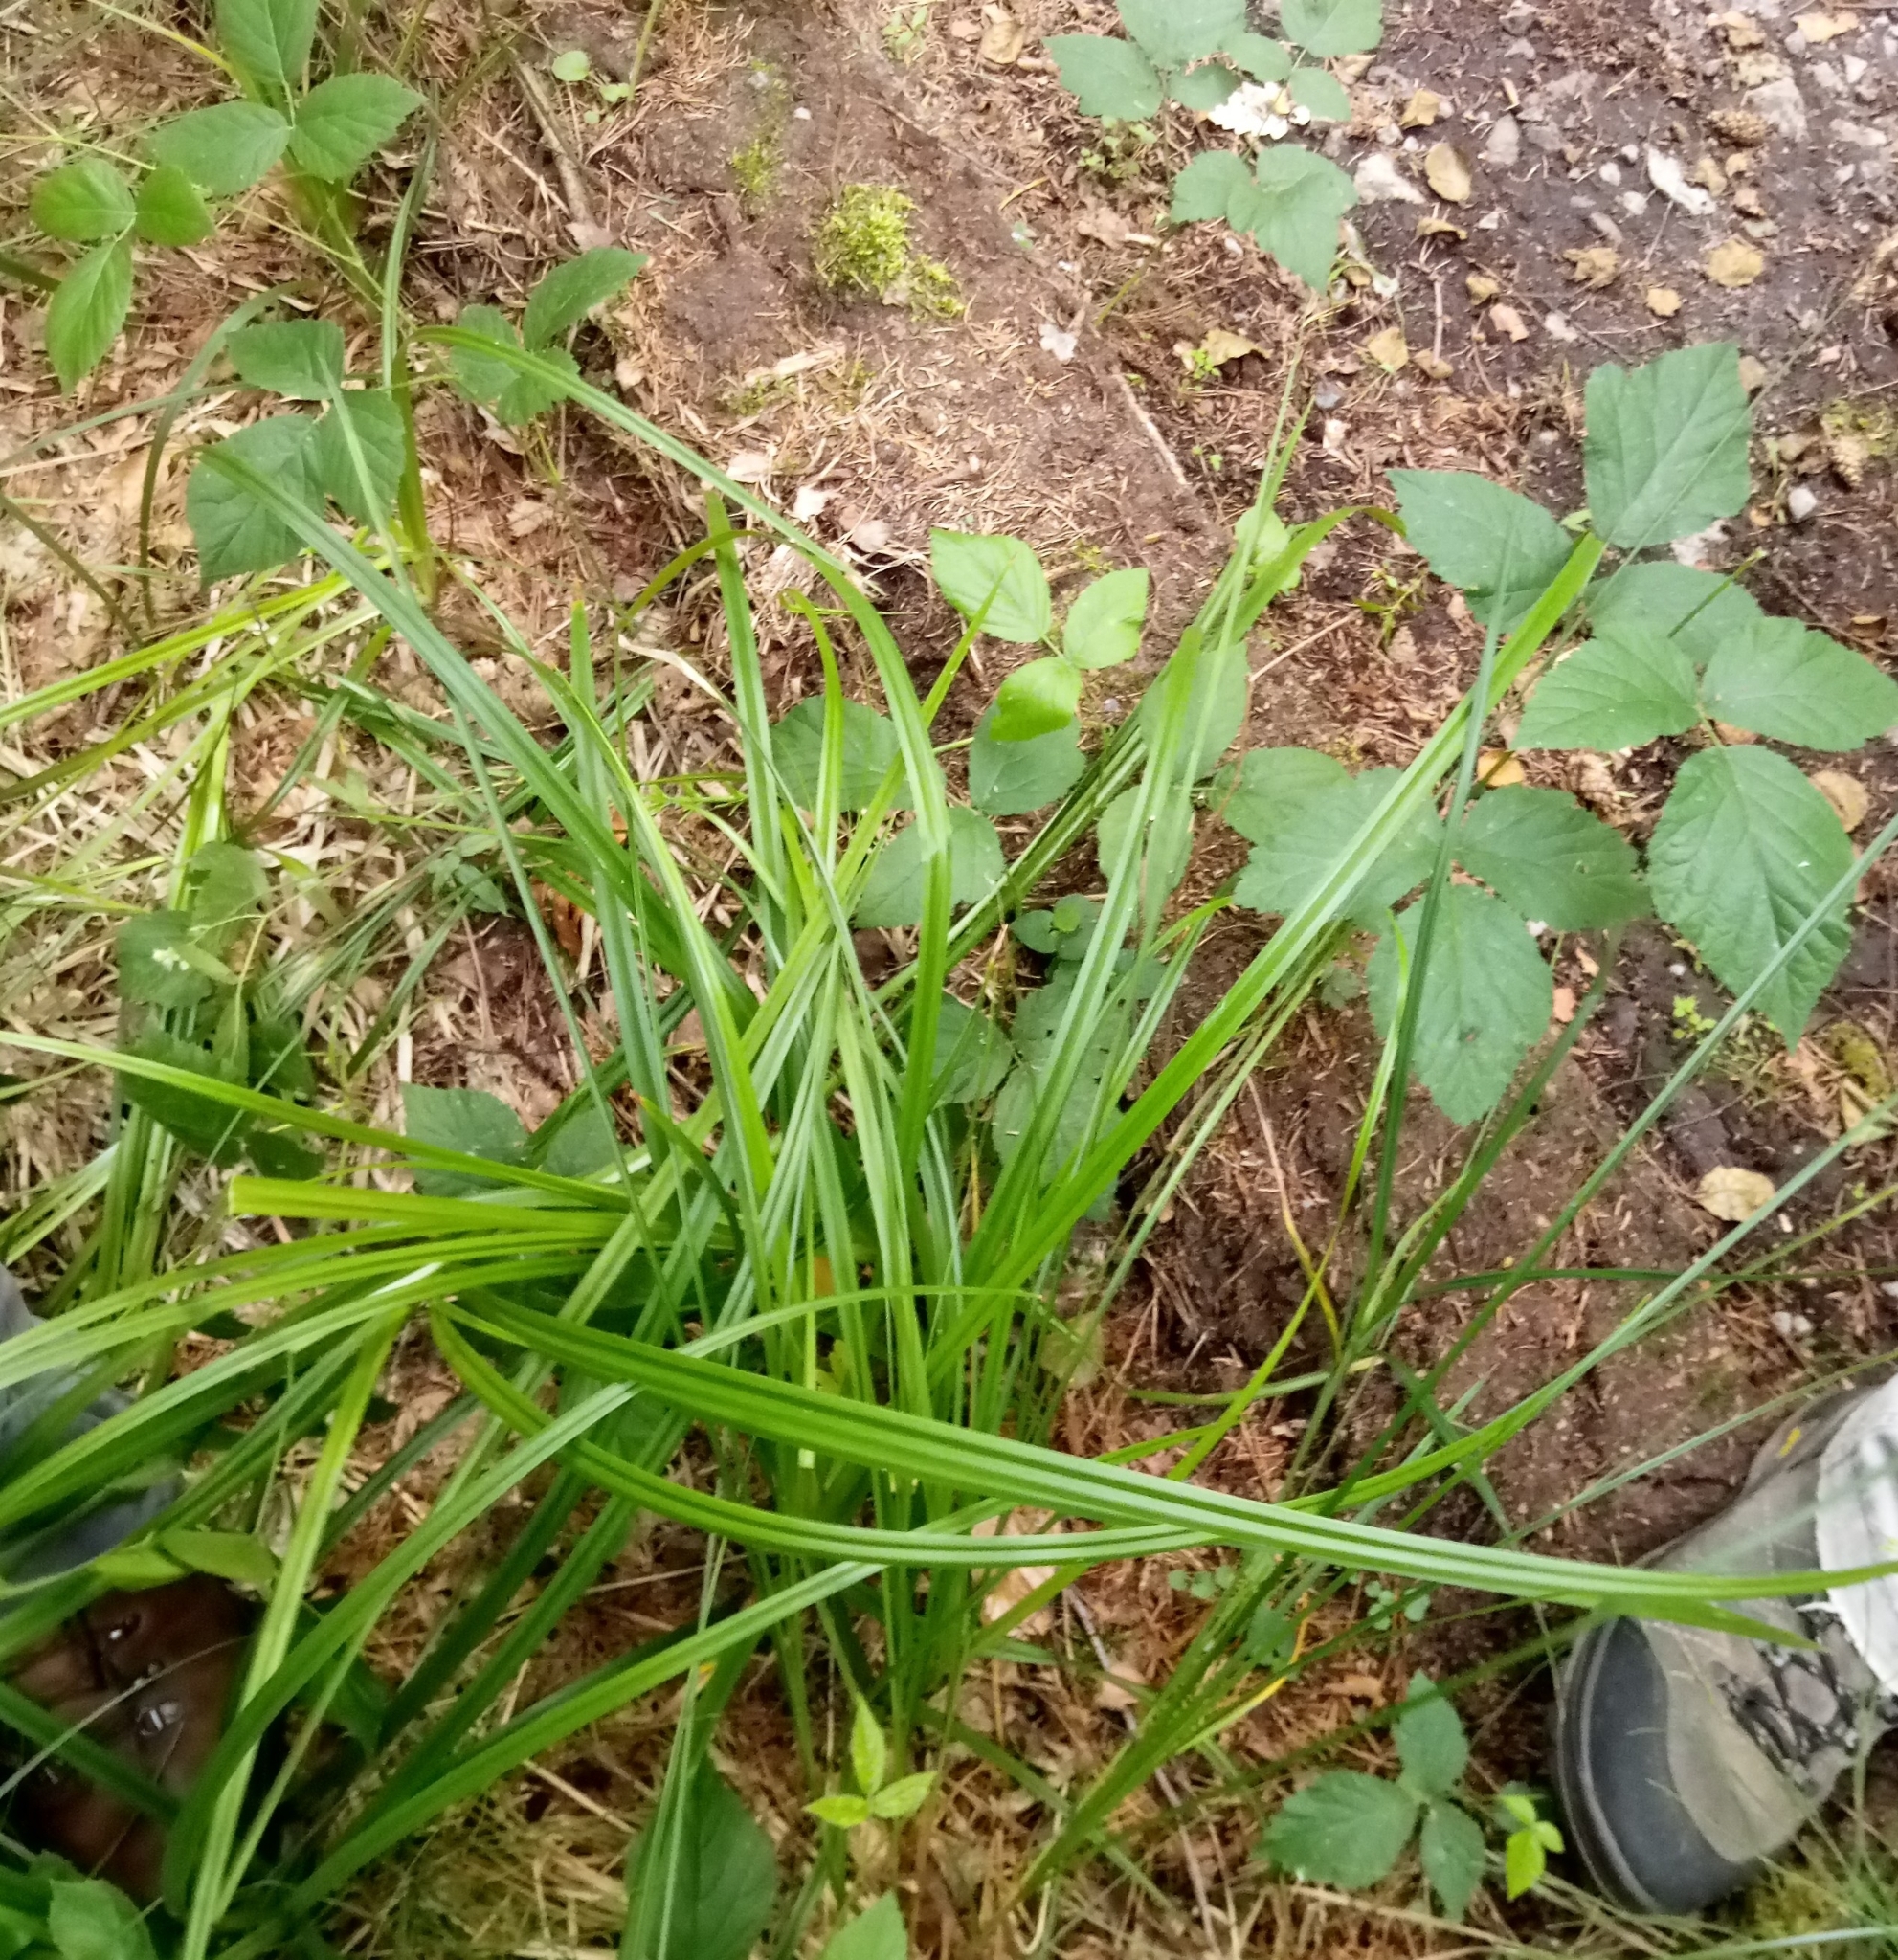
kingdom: Plantae
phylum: Tracheophyta
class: Liliopsida
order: Poales
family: Cyperaceae
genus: Carex
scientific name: Carex paniculata
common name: Greater tussock-sedge
